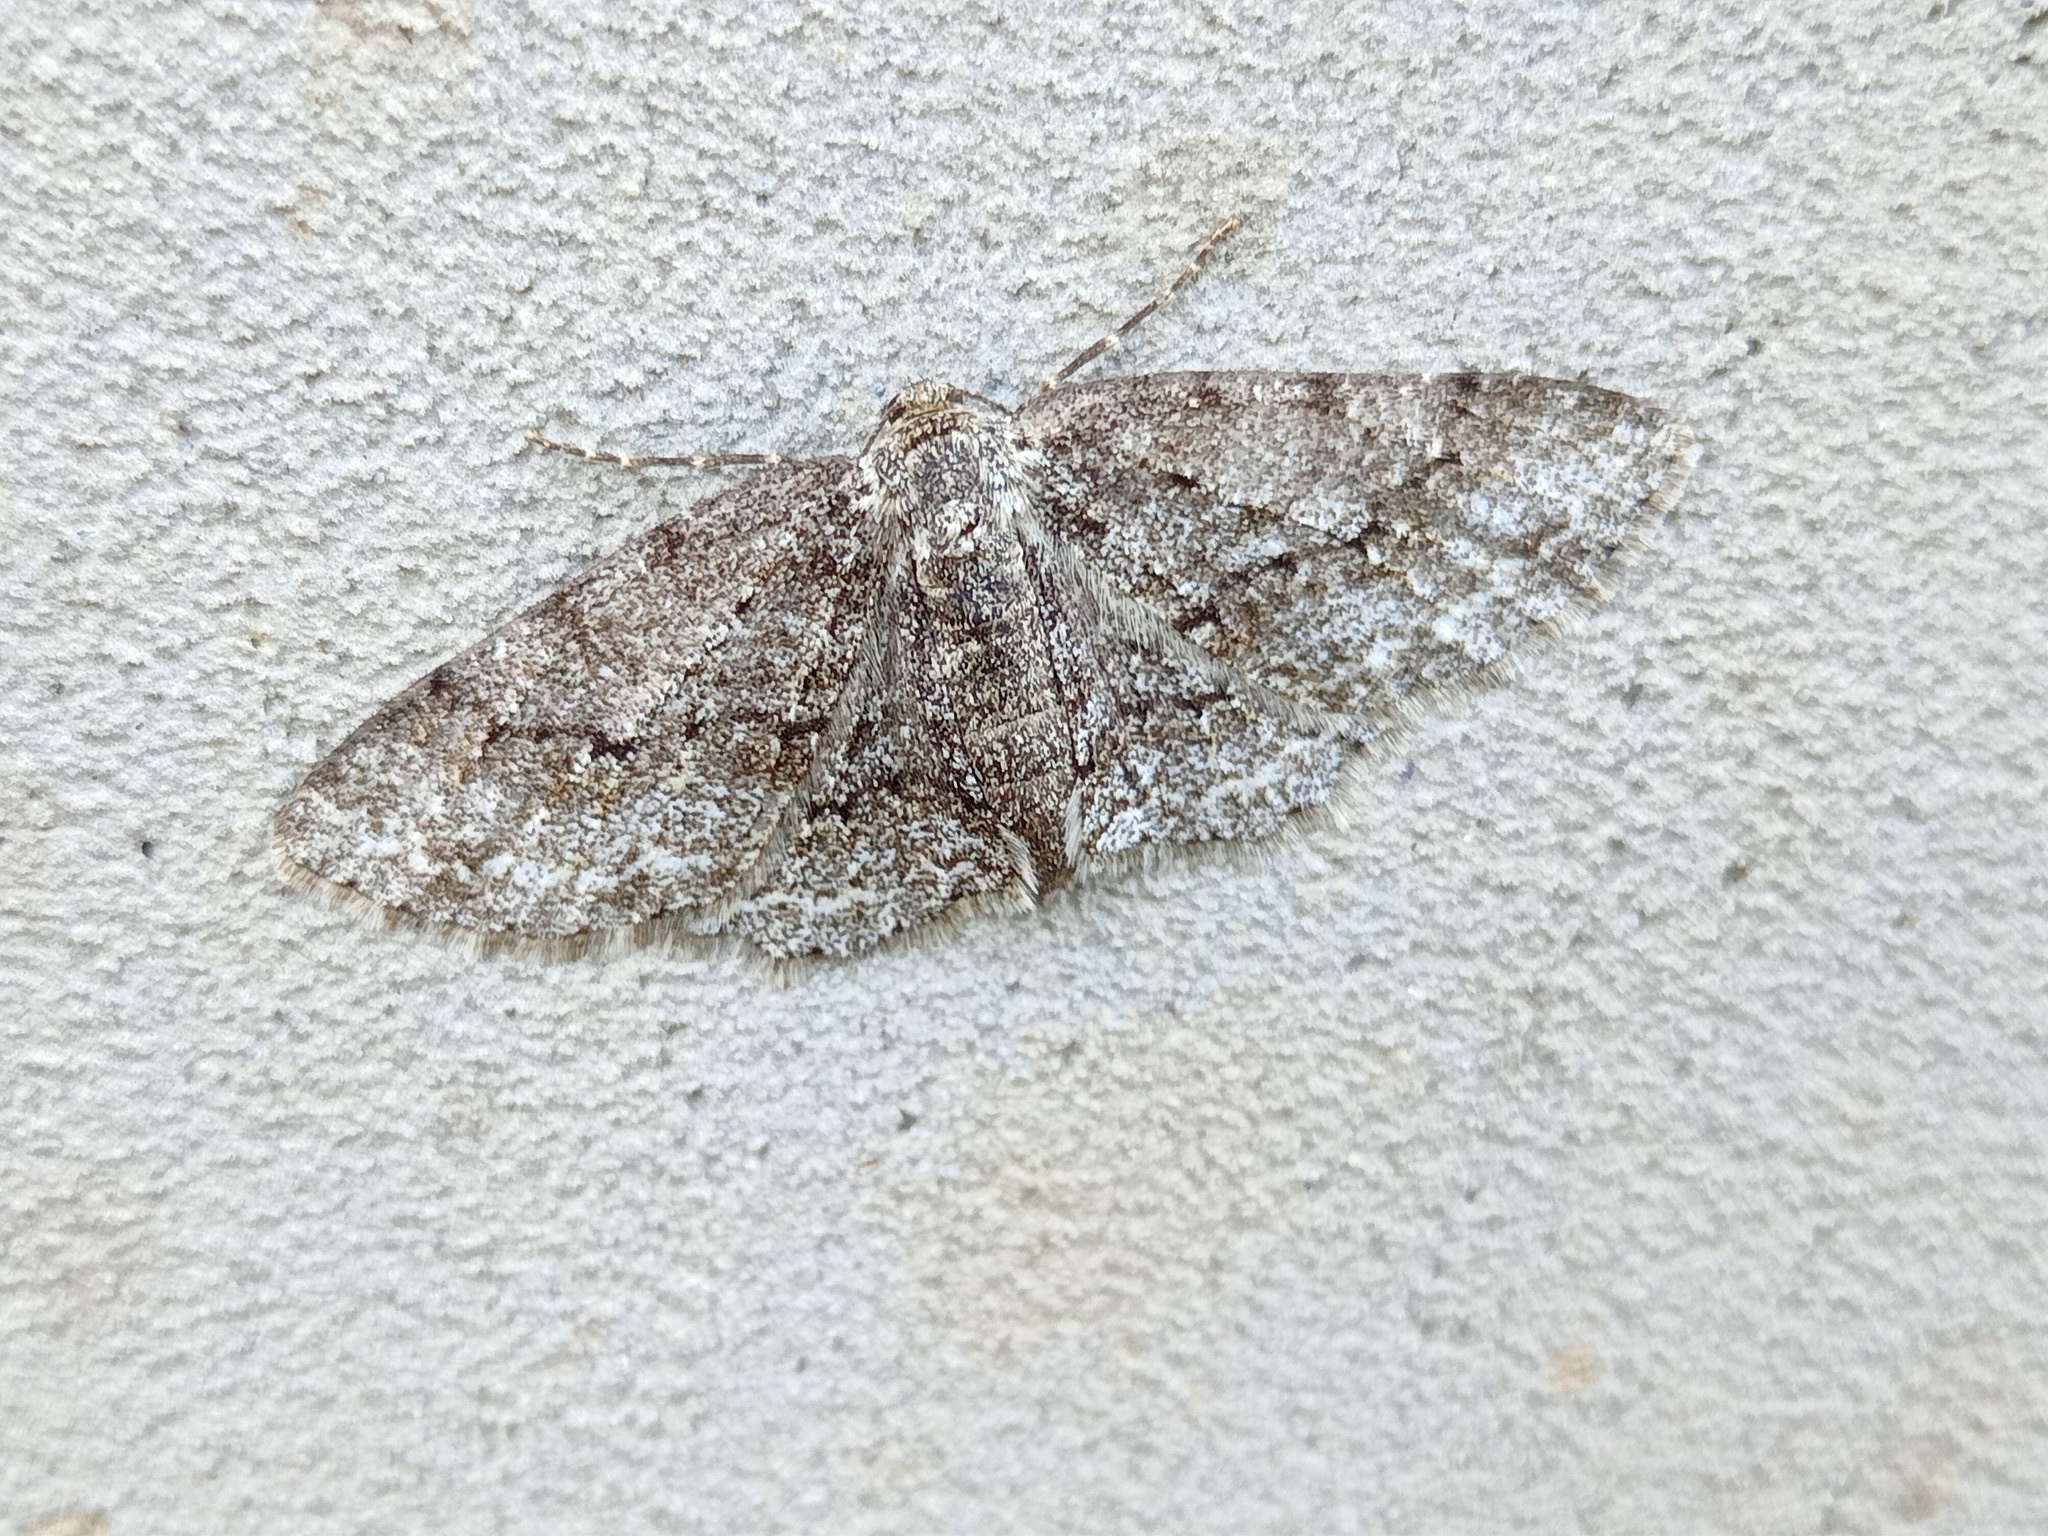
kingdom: Animalia
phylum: Arthropoda
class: Insecta
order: Lepidoptera
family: Geometridae
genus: Ectropis
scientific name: Ectropis crepuscularia
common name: Engrailed
